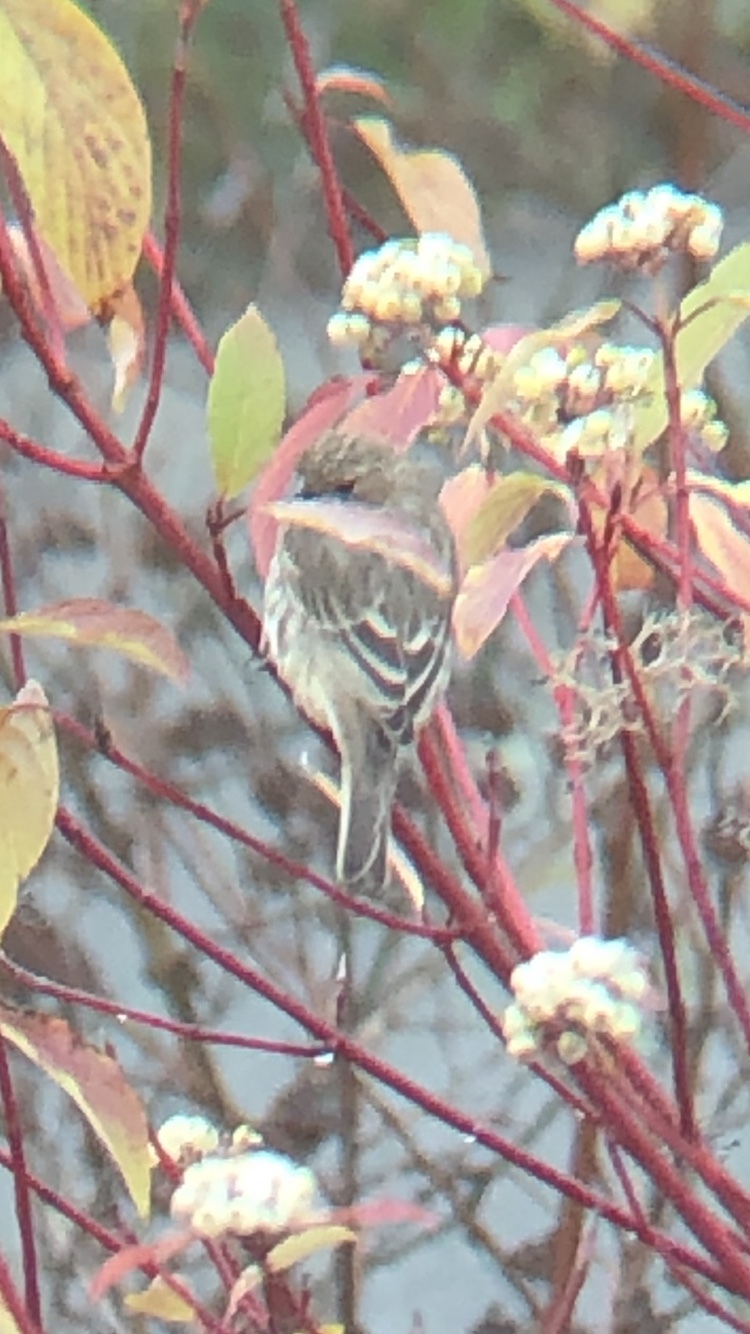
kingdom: Animalia
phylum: Chordata
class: Aves
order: Passeriformes
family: Fringillidae
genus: Haemorhous
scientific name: Haemorhous mexicanus
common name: House finch
